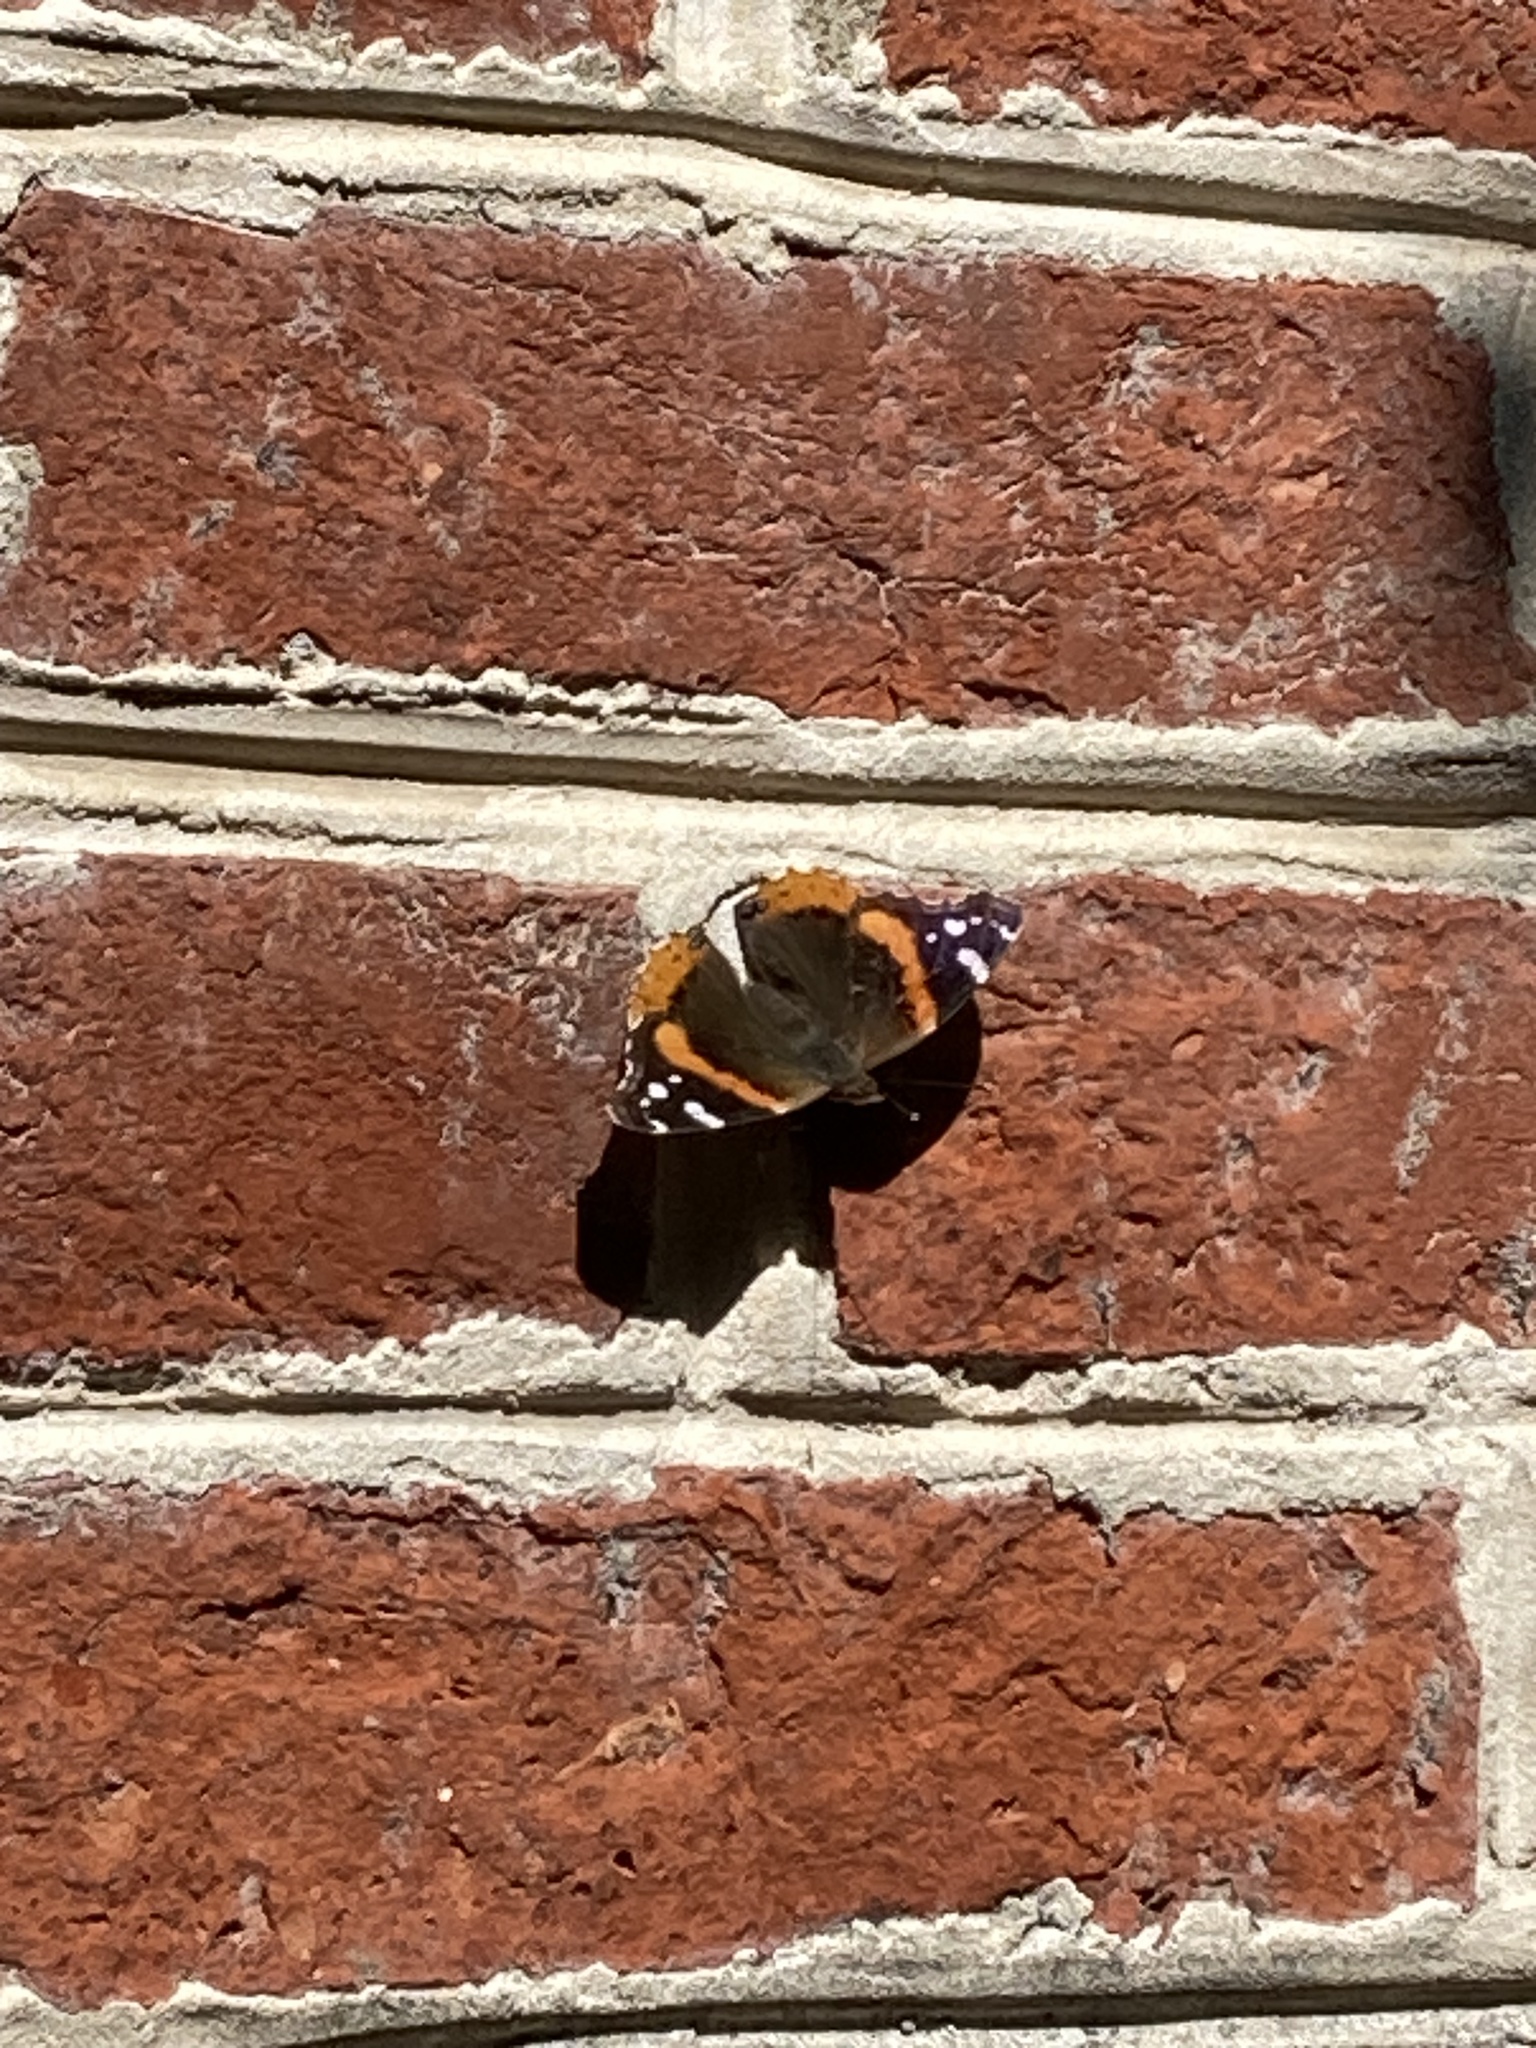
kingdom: Animalia
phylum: Arthropoda
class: Insecta
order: Lepidoptera
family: Nymphalidae
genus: Vanessa
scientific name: Vanessa atalanta
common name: Red admiral
